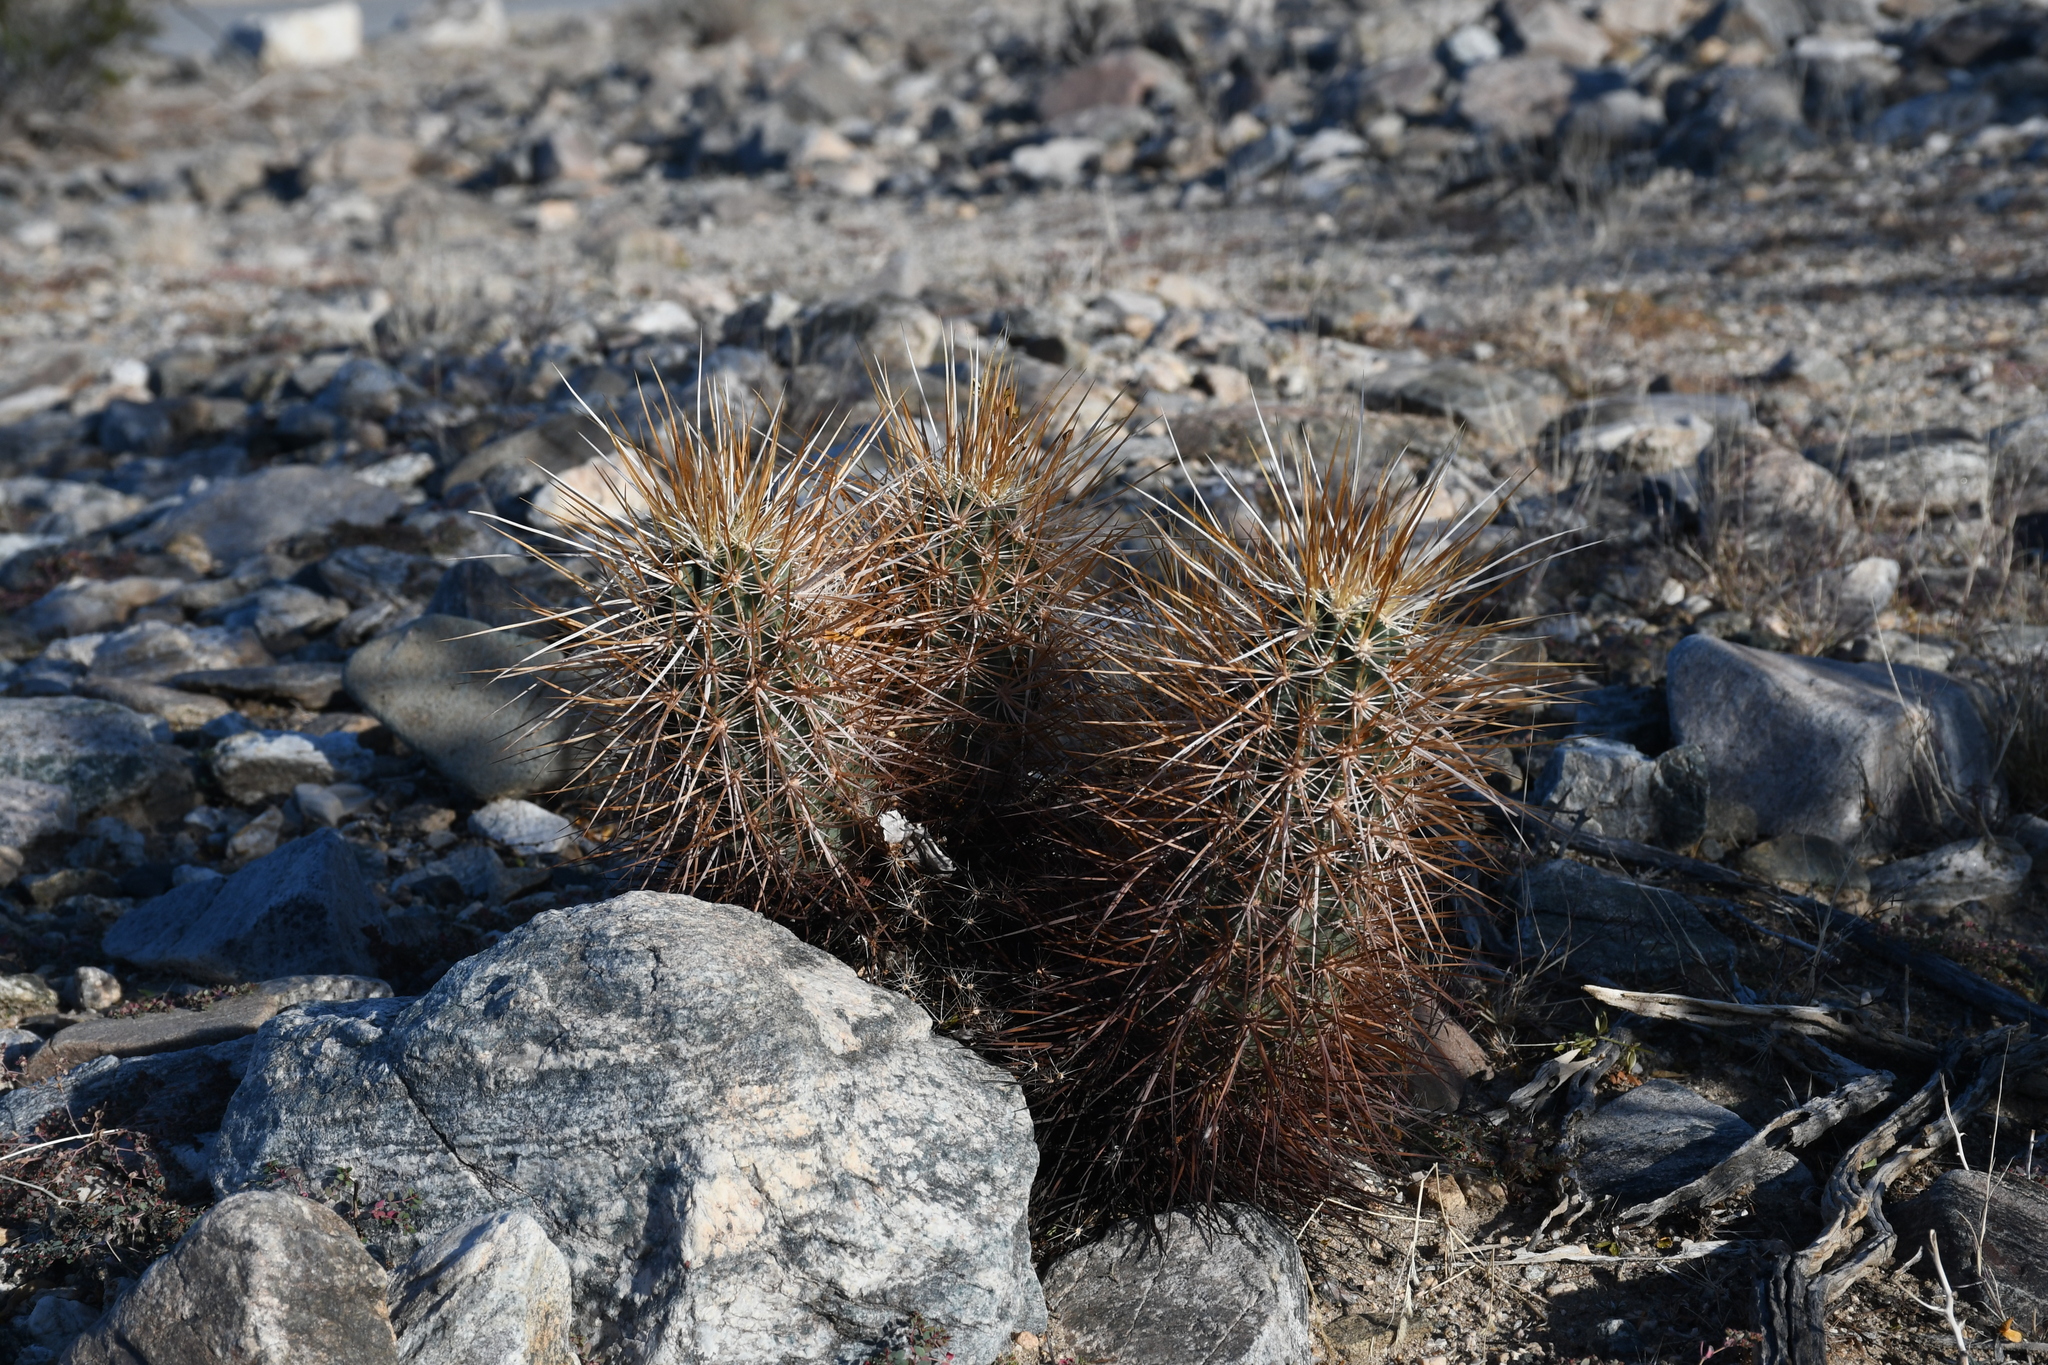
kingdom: Plantae
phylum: Tracheophyta
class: Magnoliopsida
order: Caryophyllales
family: Cactaceae
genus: Echinocereus
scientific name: Echinocereus engelmannii
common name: Engelmann's hedgehog cactus
